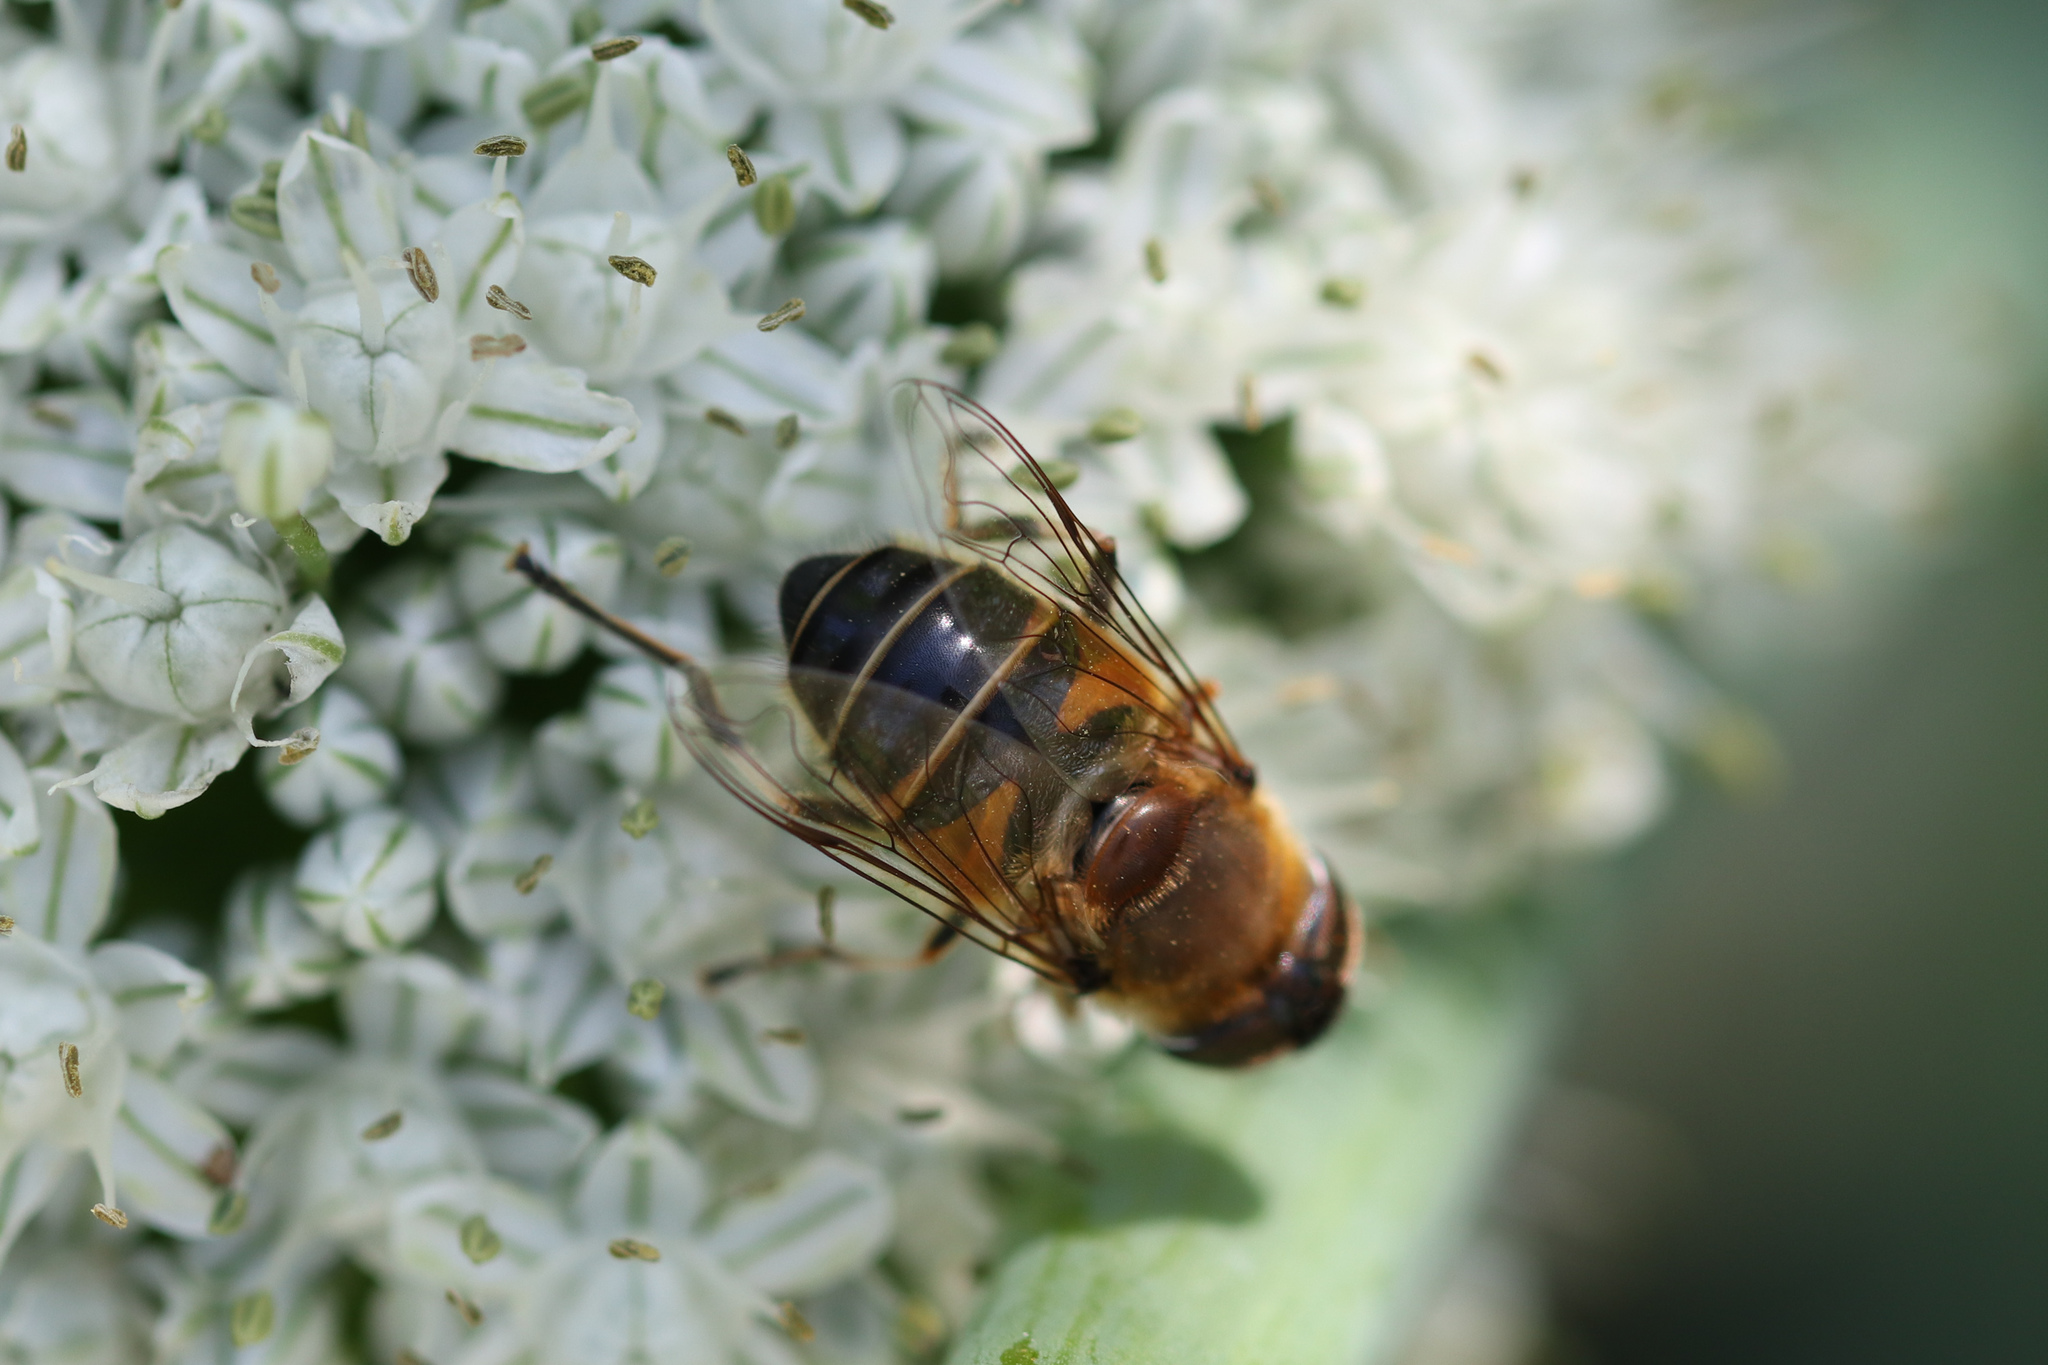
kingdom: Animalia
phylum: Arthropoda
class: Insecta
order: Diptera
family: Syrphidae
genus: Eristalis
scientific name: Eristalis pertinax
